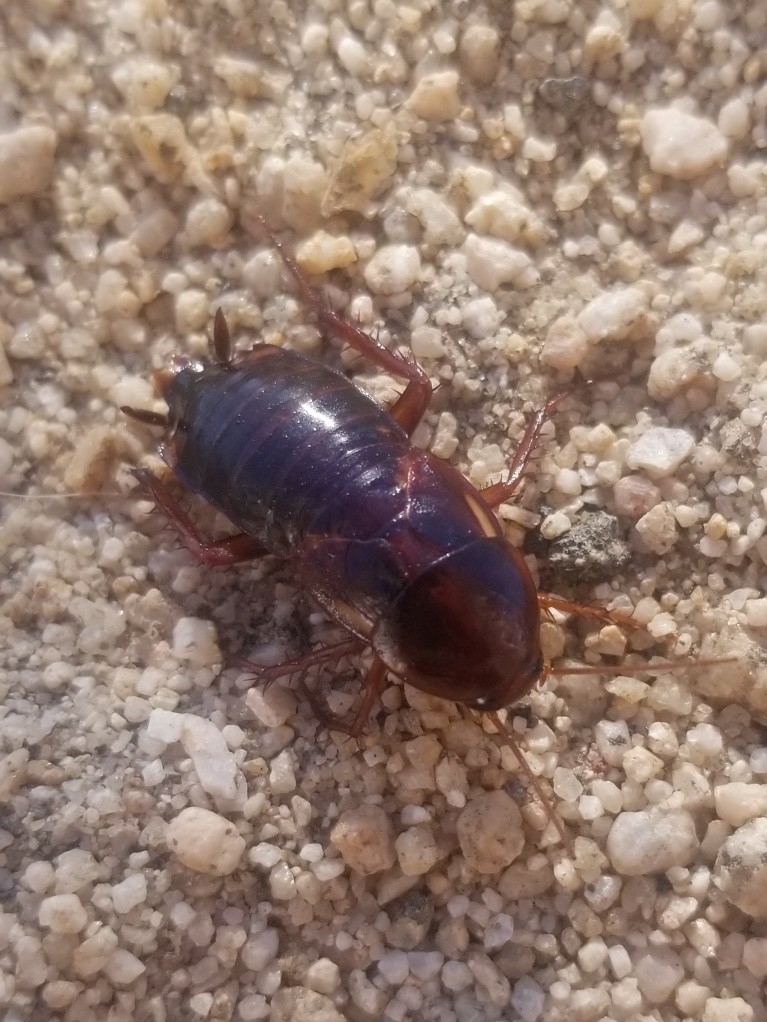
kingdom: Animalia
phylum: Arthropoda
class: Insecta
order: Blattodea
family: Blattidae
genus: Periplaneta
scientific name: Periplaneta lateralis
